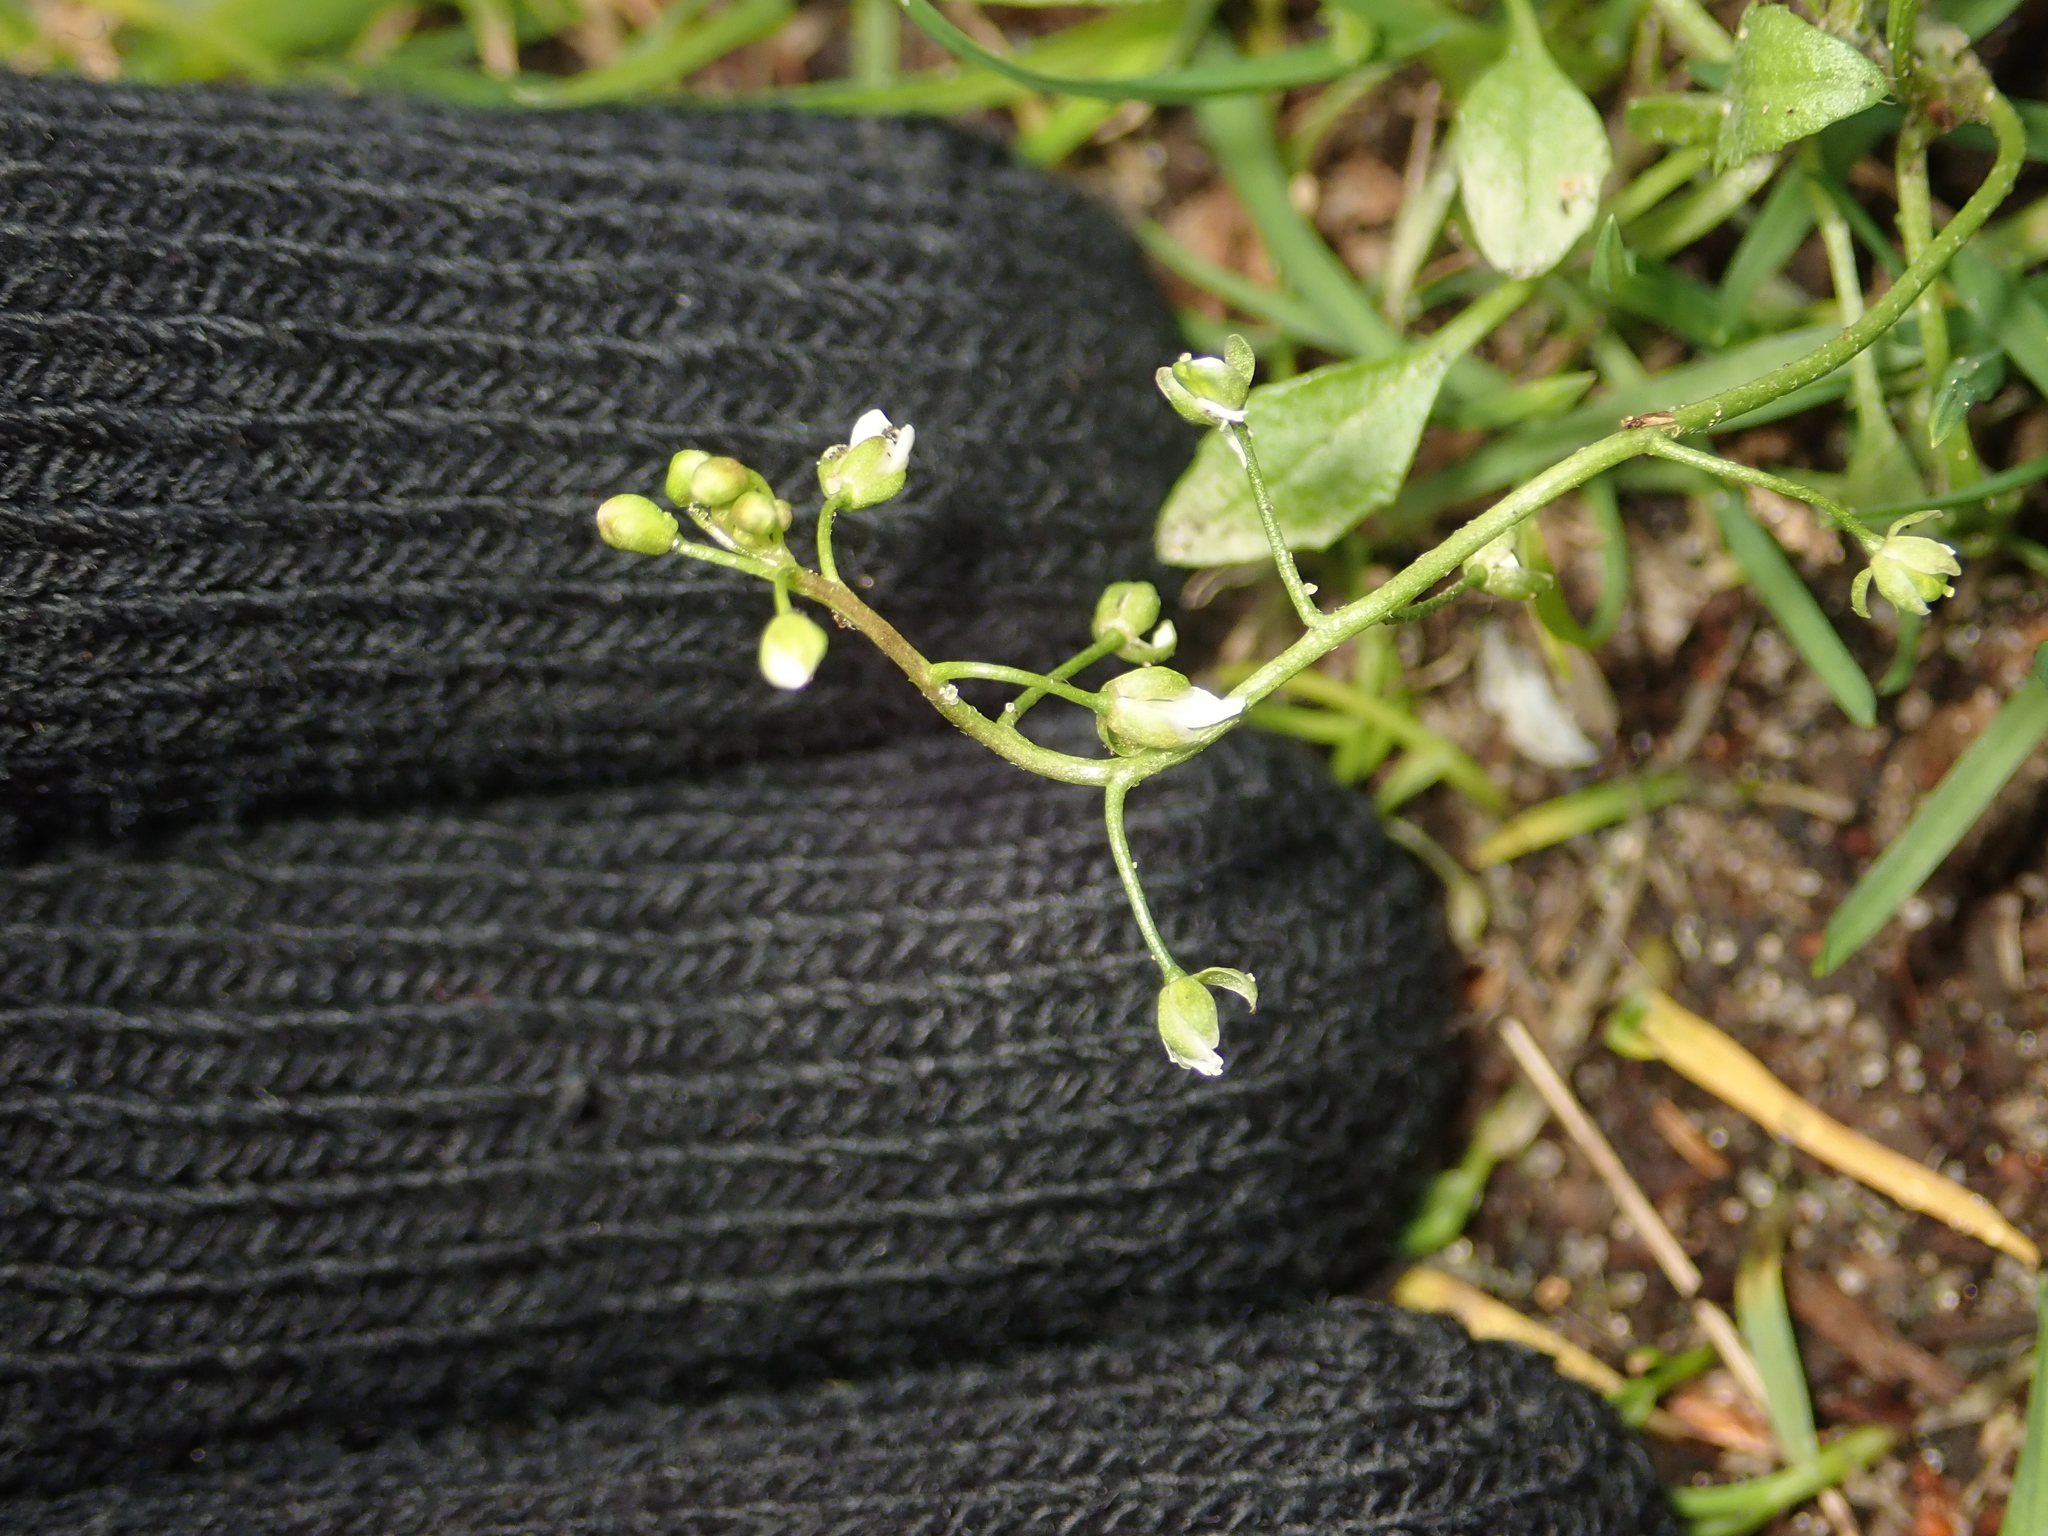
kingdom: Plantae
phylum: Tracheophyta
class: Magnoliopsida
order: Brassicales
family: Brassicaceae
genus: Capsella
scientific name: Capsella bursa-pastoris
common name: Shepherd's purse
